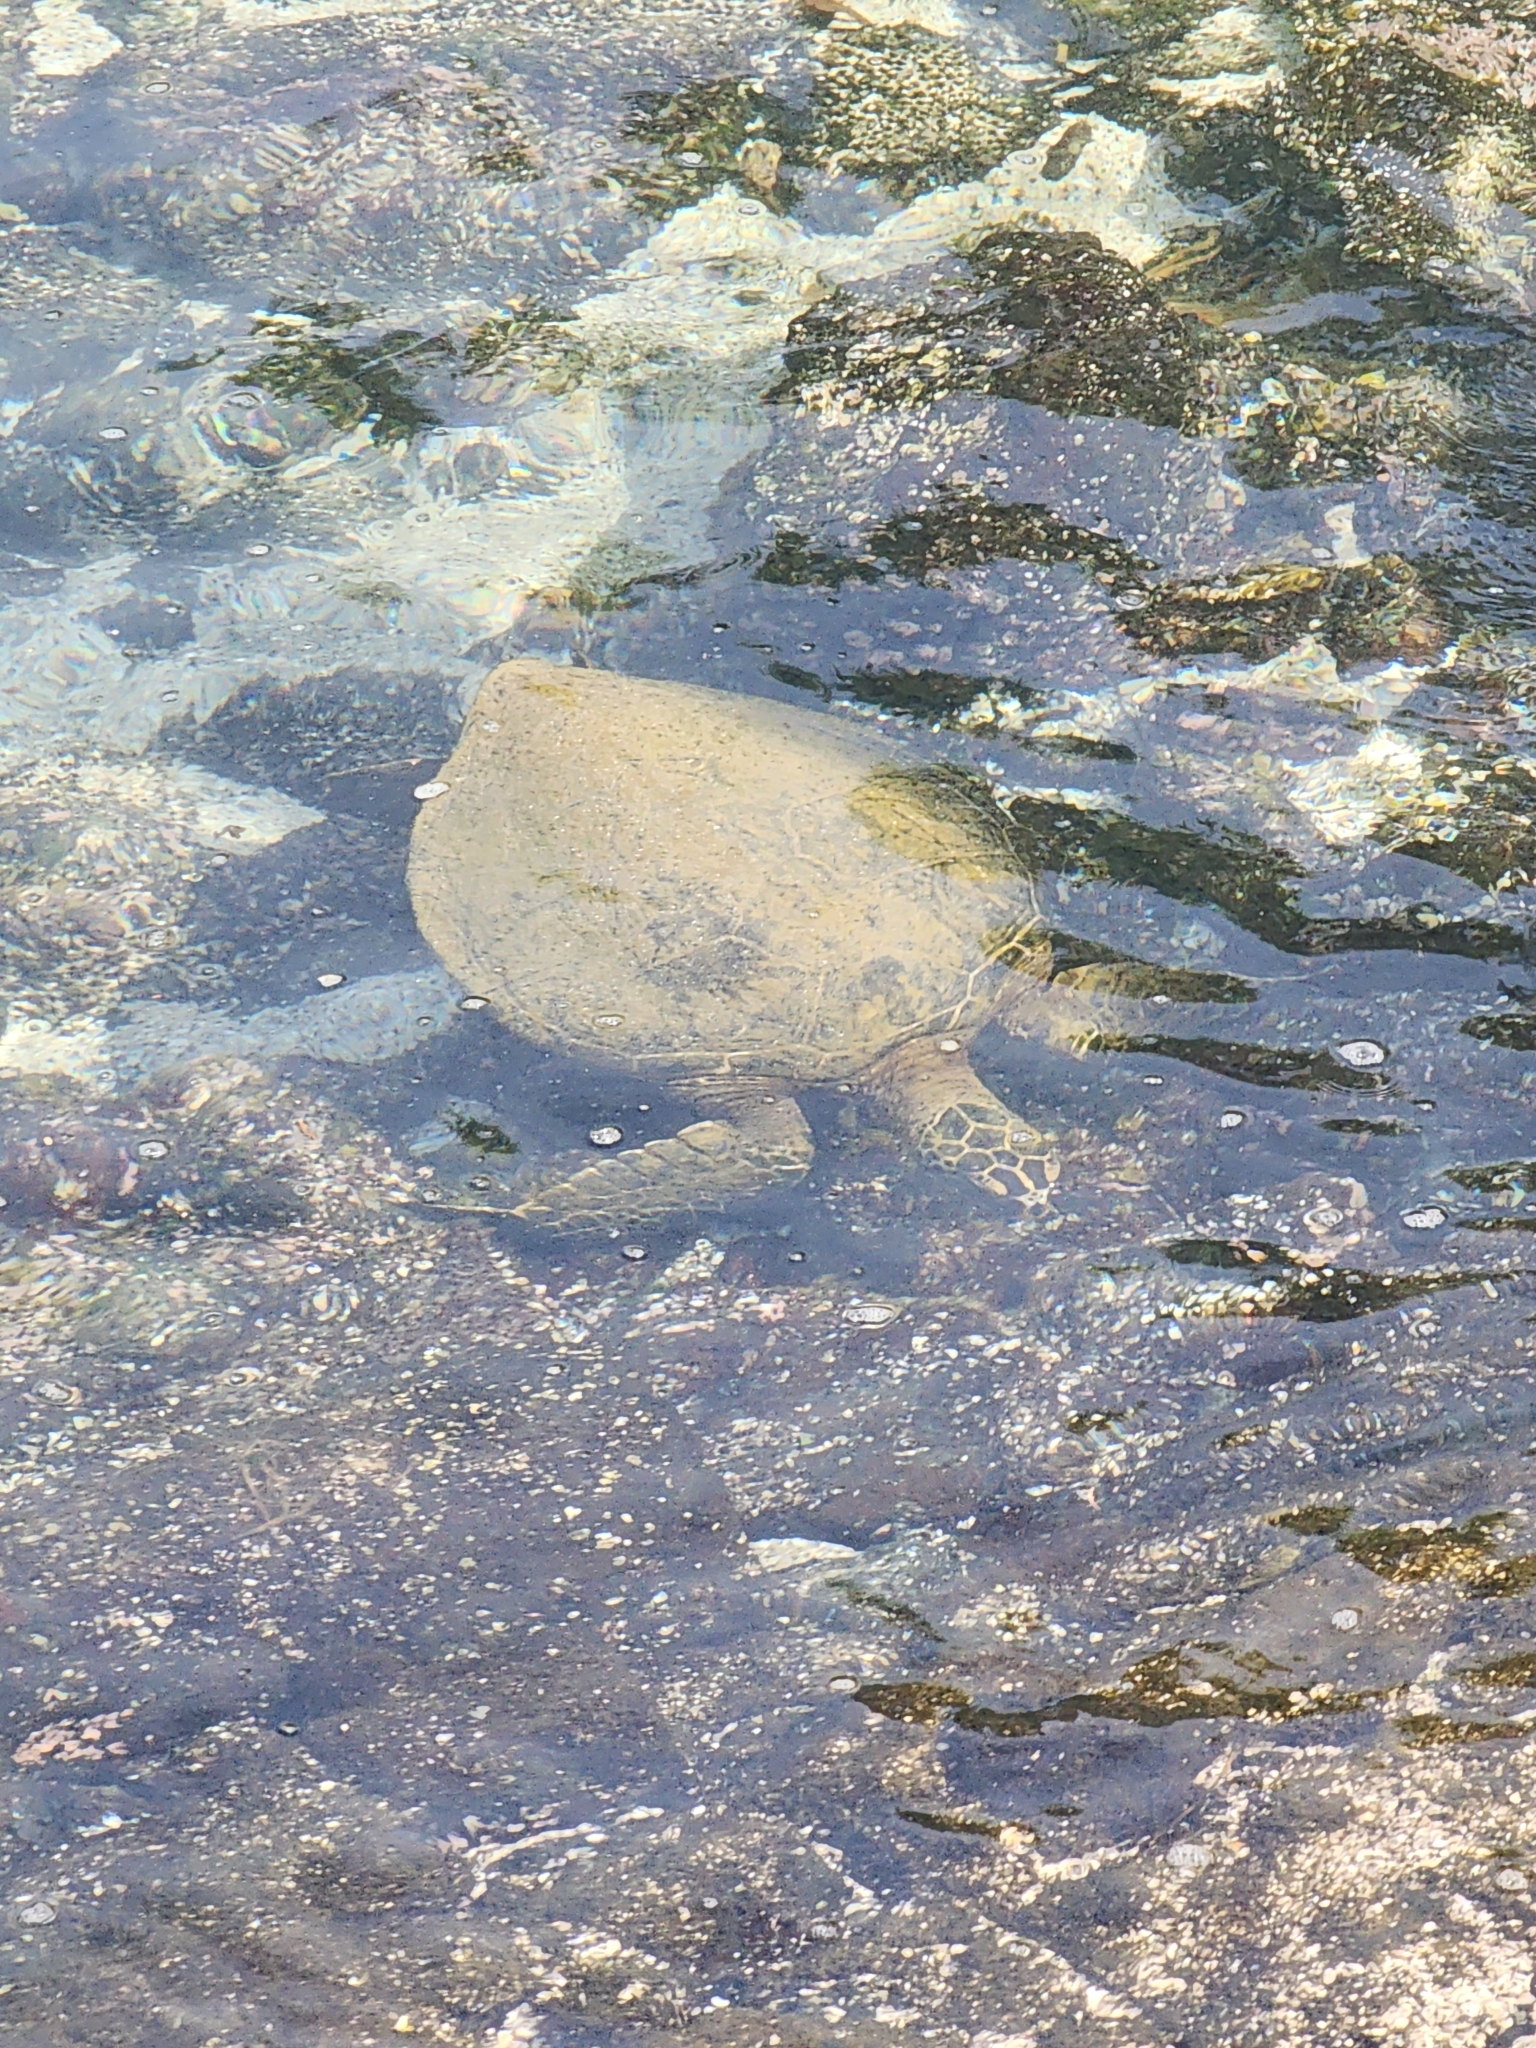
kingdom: Animalia
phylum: Chordata
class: Testudines
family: Cheloniidae
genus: Eretmochelys
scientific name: Eretmochelys imbricata
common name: Hawksbill turtle
